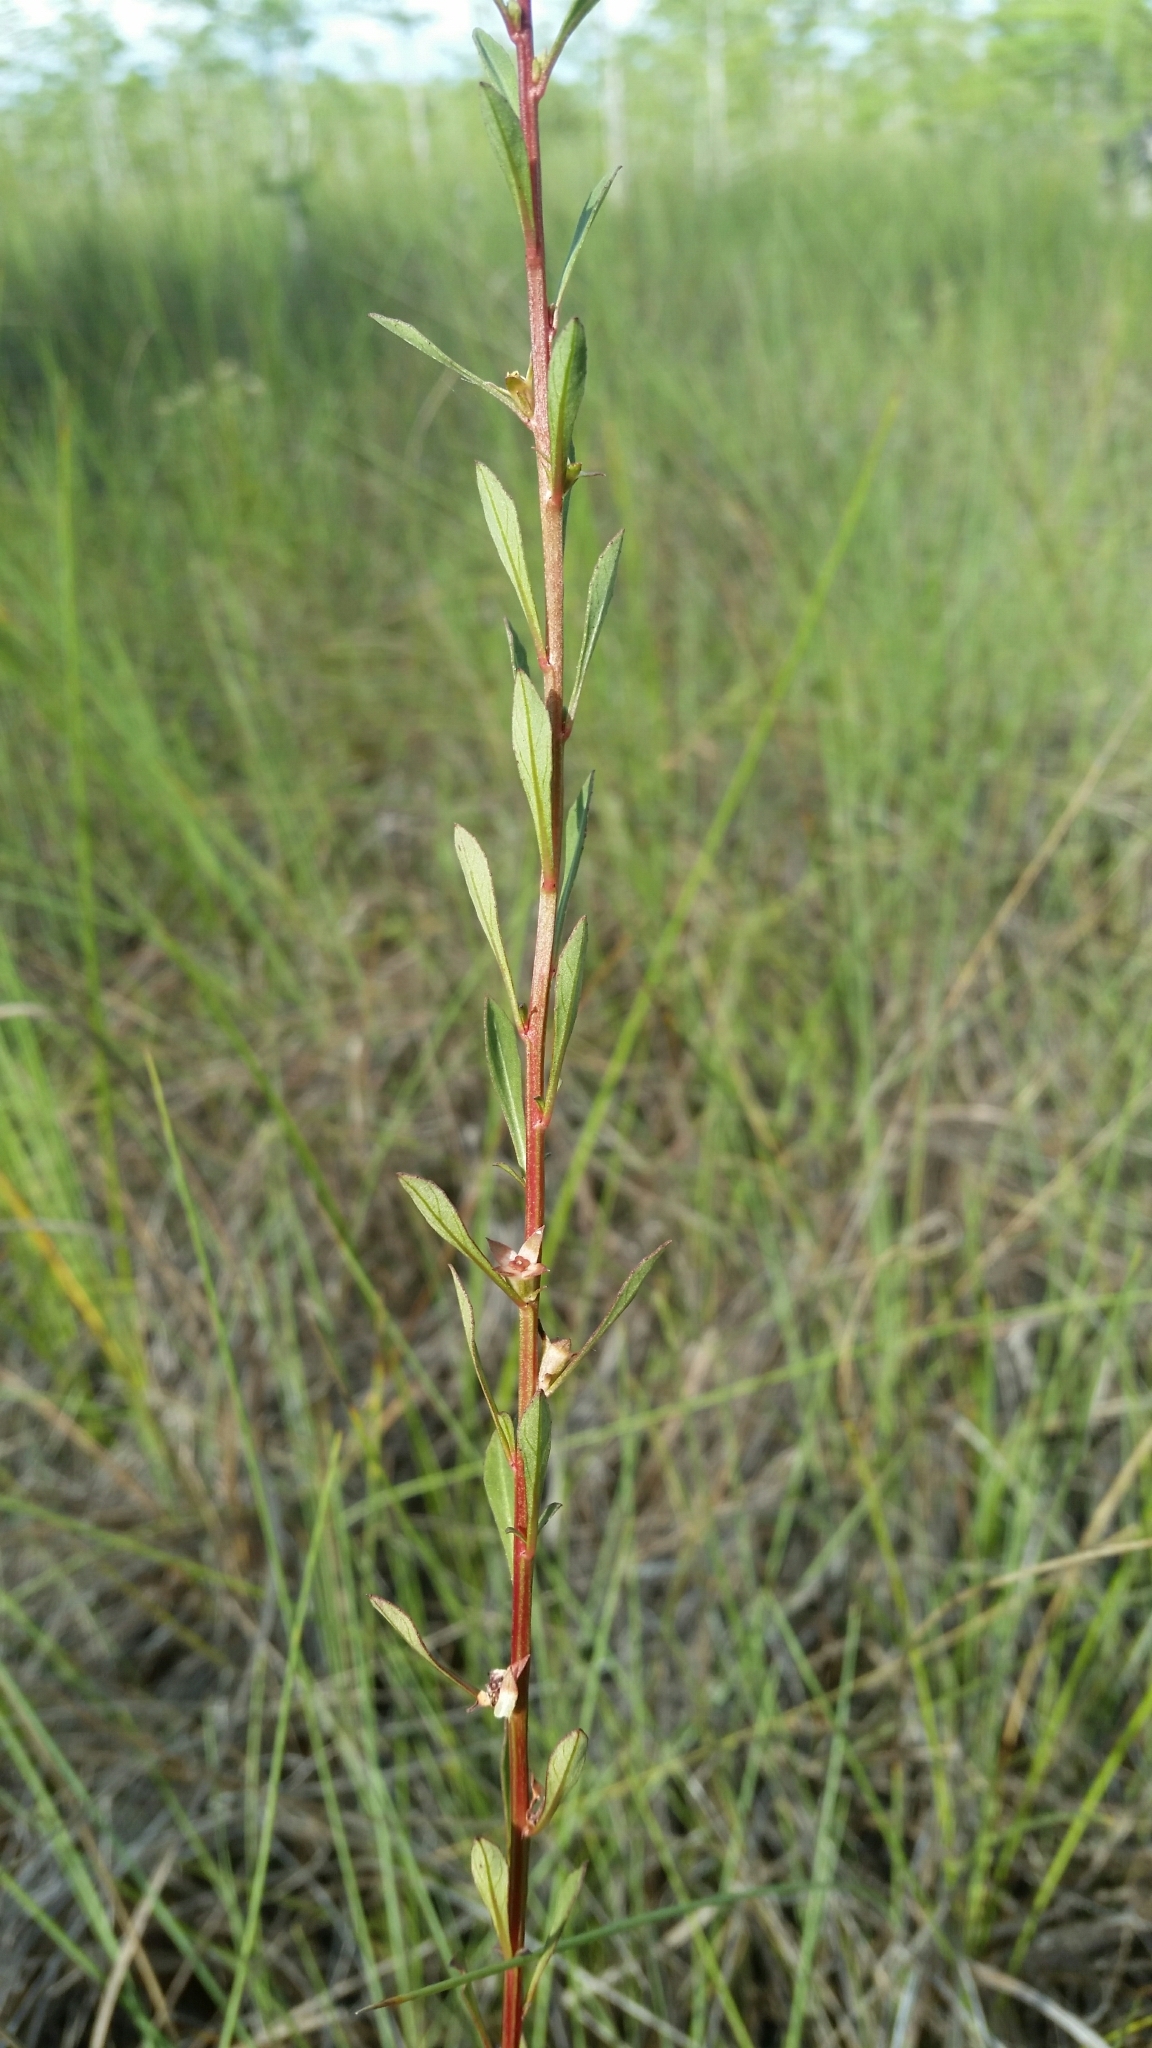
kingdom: Plantae
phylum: Tracheophyta
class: Magnoliopsida
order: Myrtales
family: Onagraceae
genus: Ludwigia
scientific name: Ludwigia curtissii
